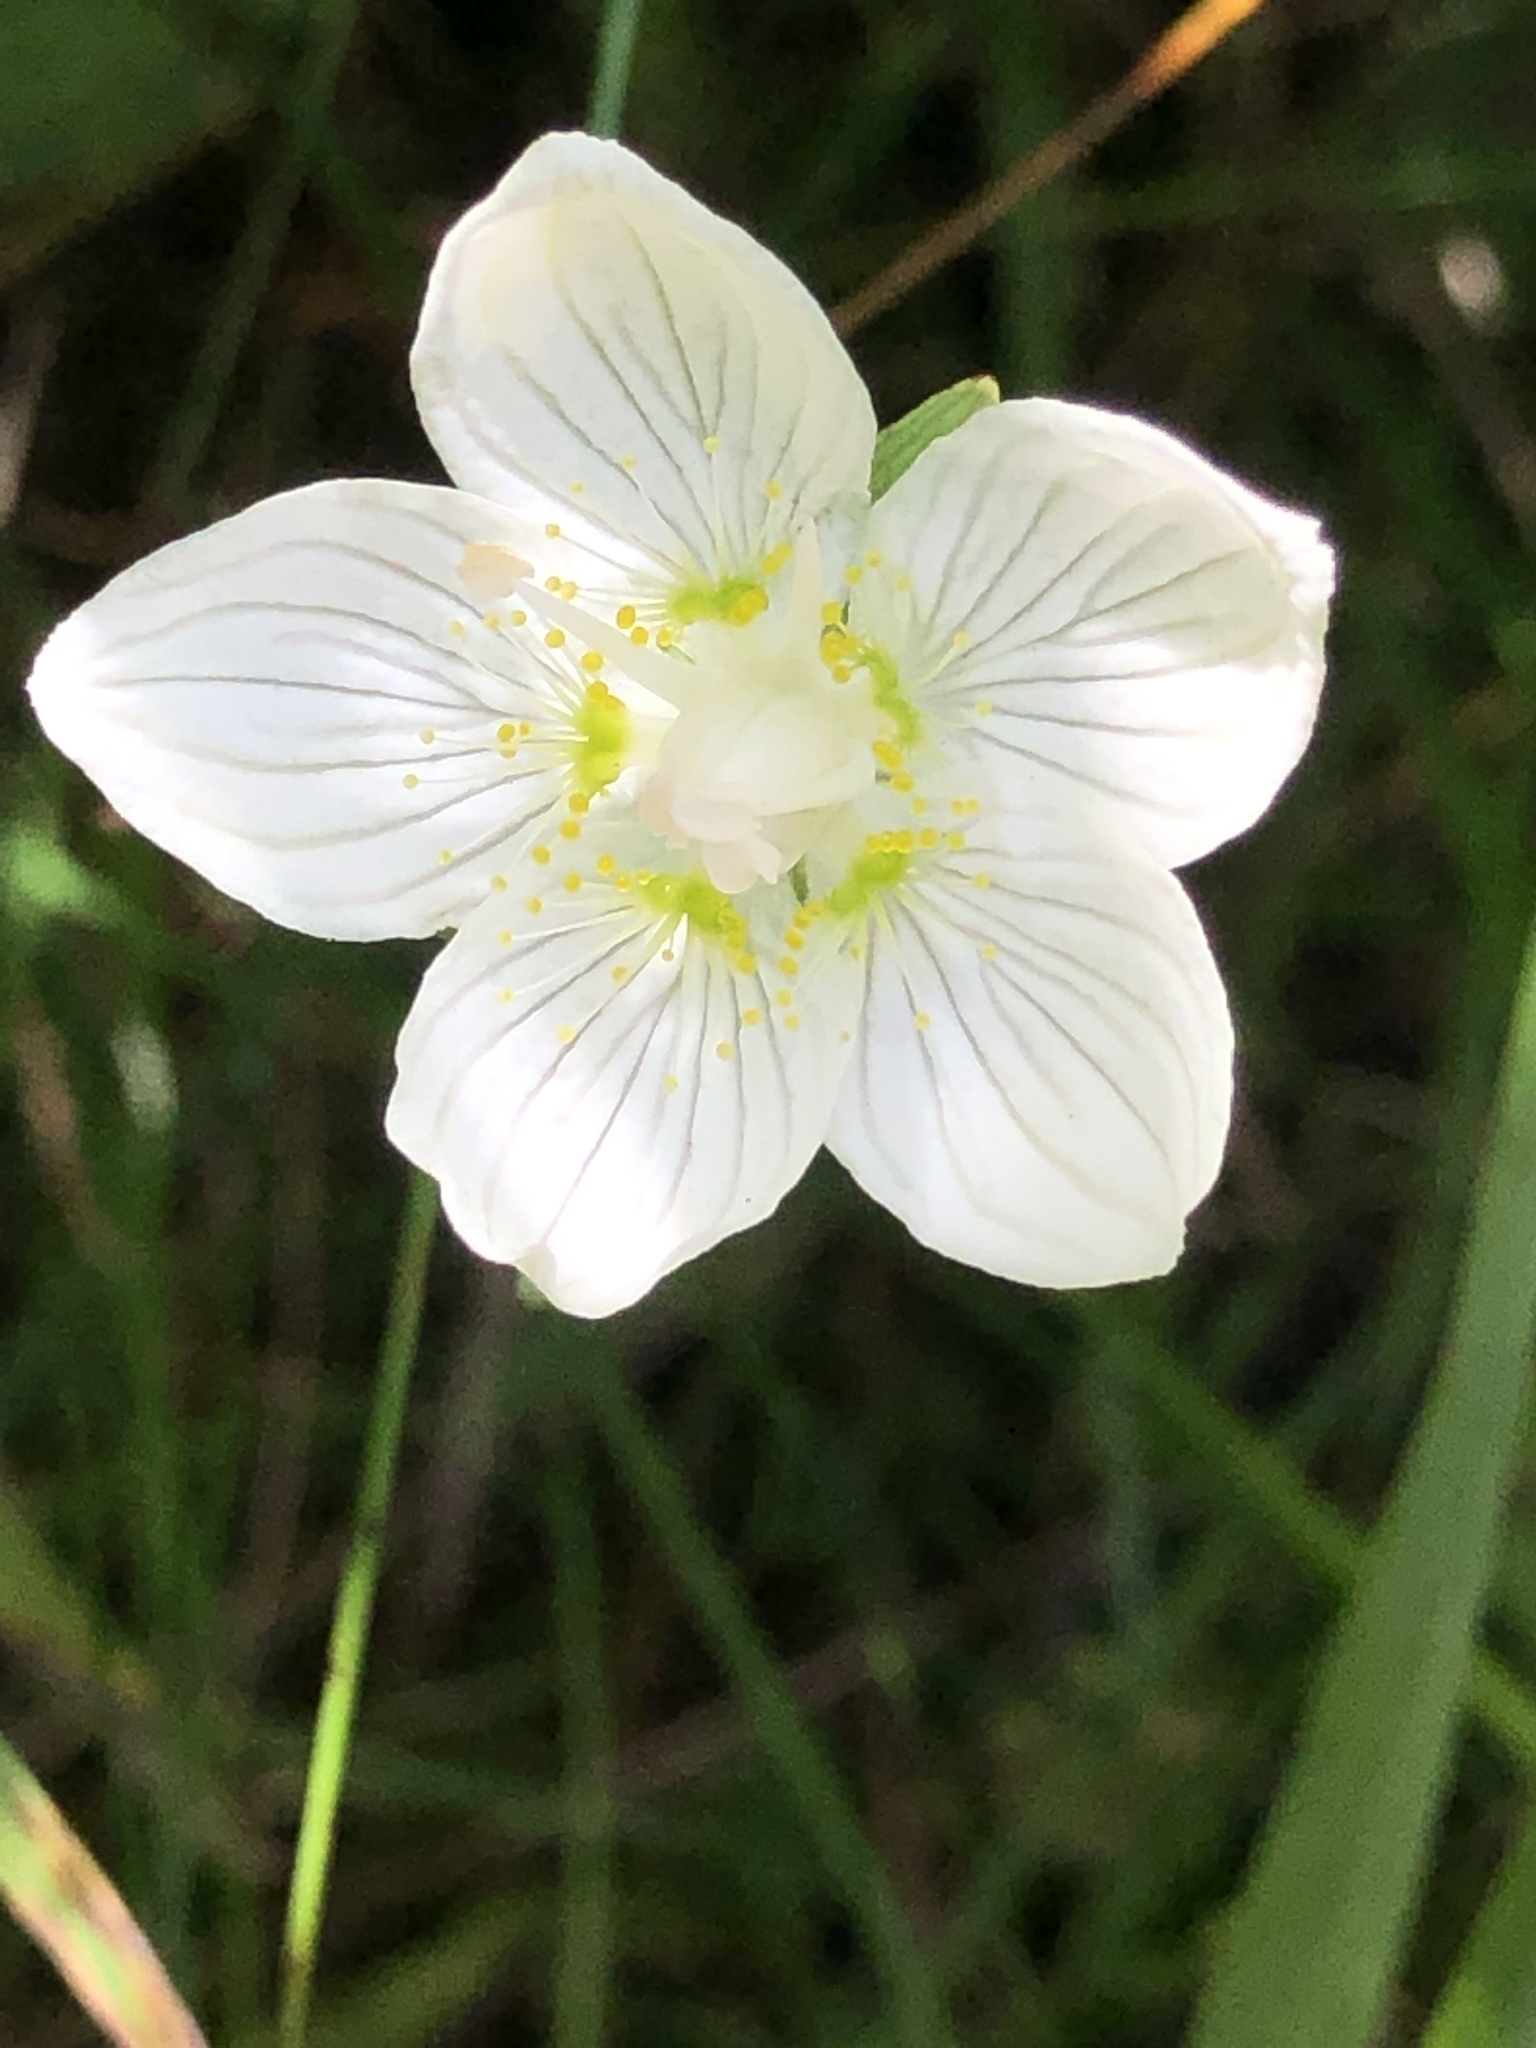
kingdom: Plantae
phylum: Tracheophyta
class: Magnoliopsida
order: Celastrales
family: Parnassiaceae
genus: Parnassia
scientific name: Parnassia palustris
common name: Grass-of-parnassus
